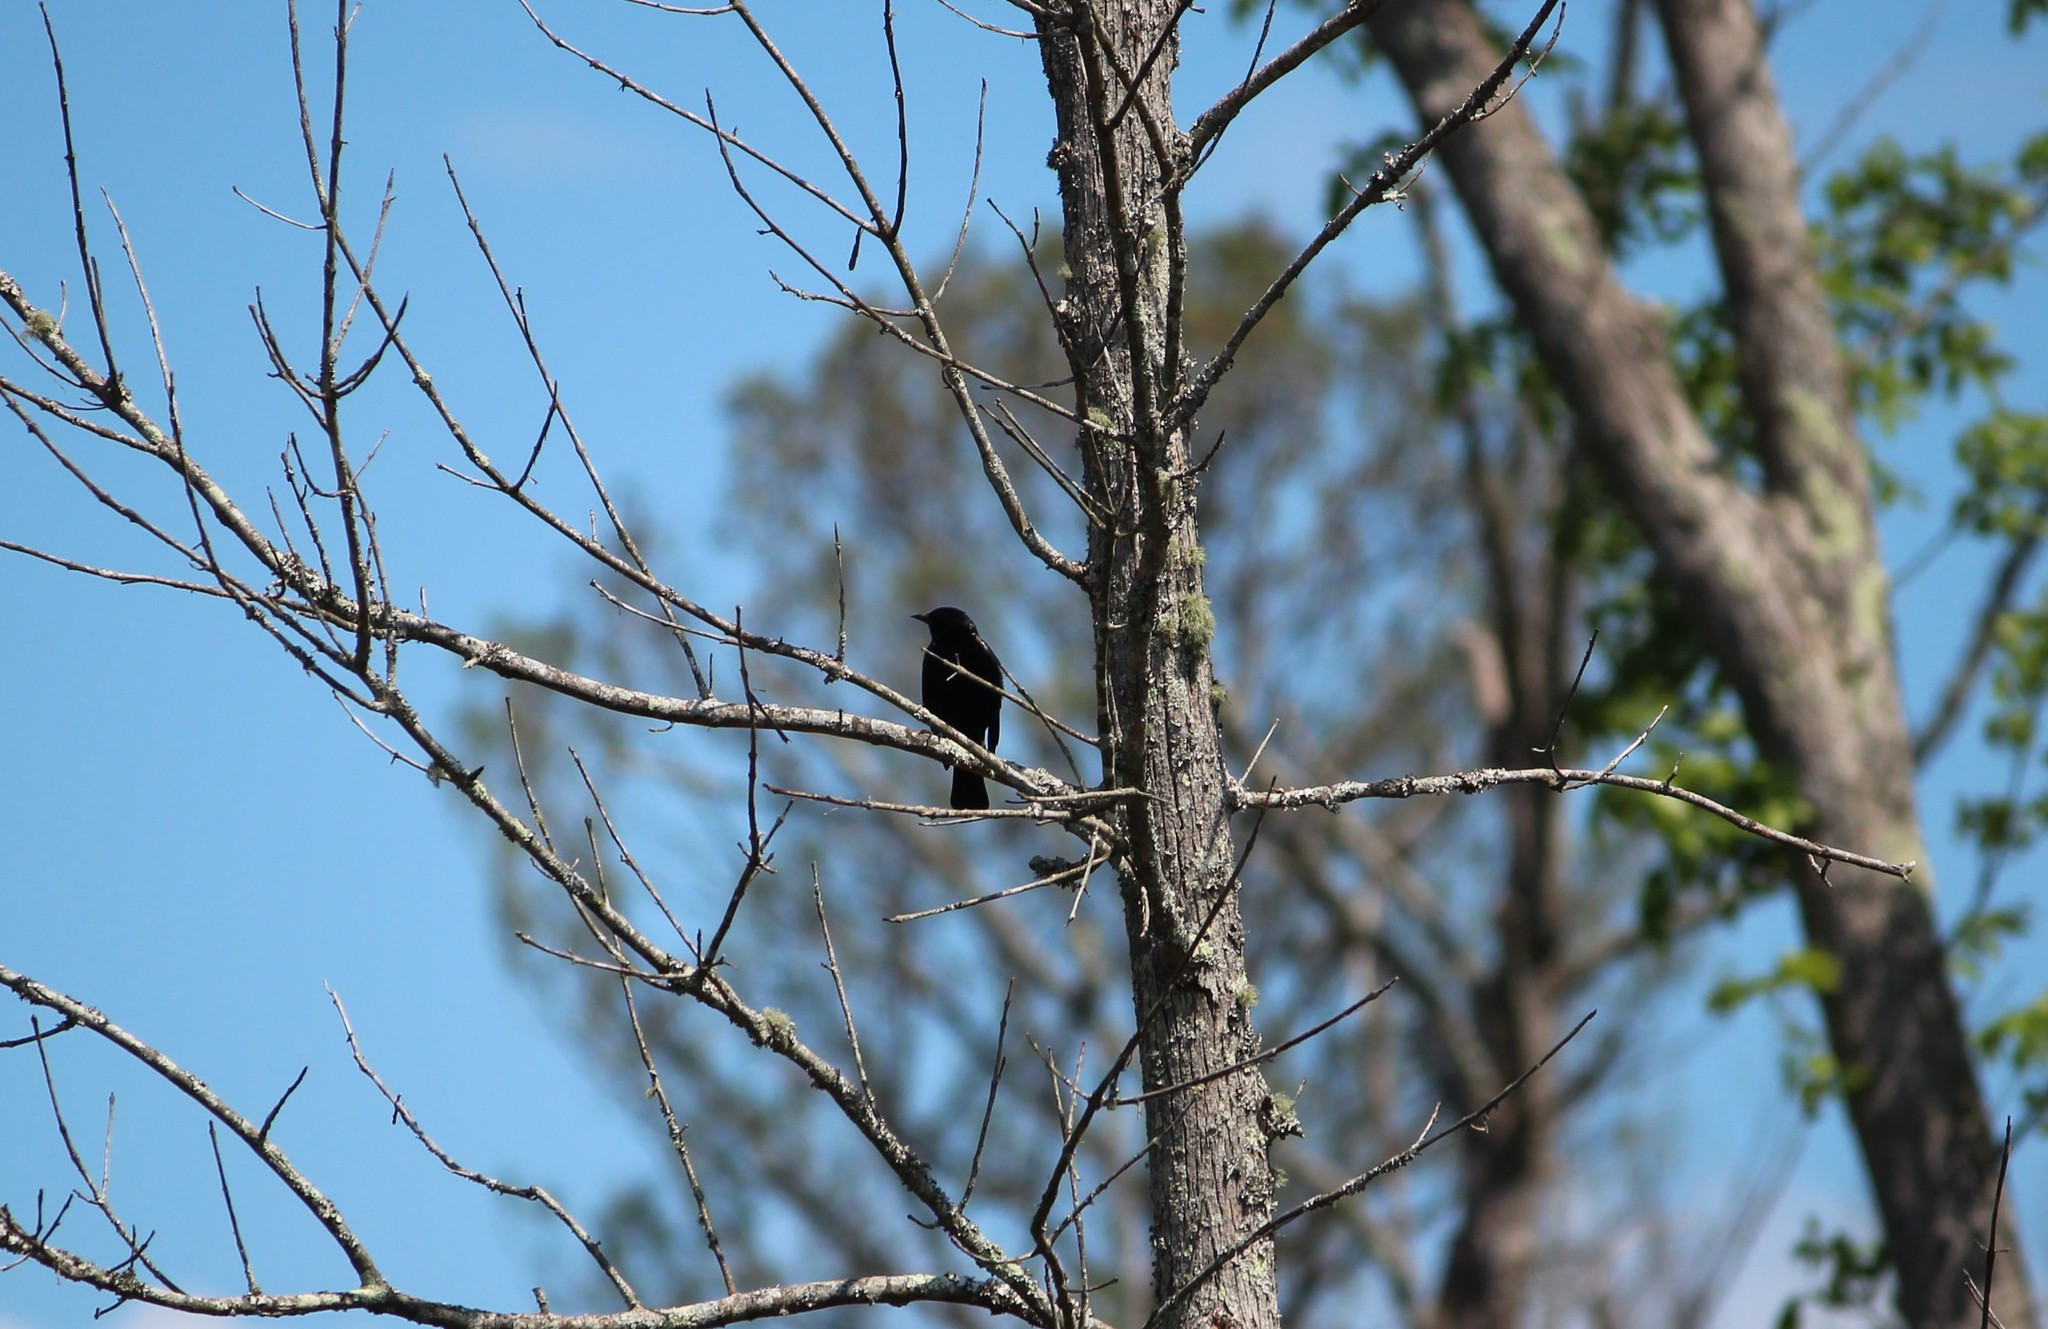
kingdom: Animalia
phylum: Chordata
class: Aves
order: Passeriformes
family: Icteridae
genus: Agelaius
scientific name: Agelaius phoeniceus
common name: Red-winged blackbird
